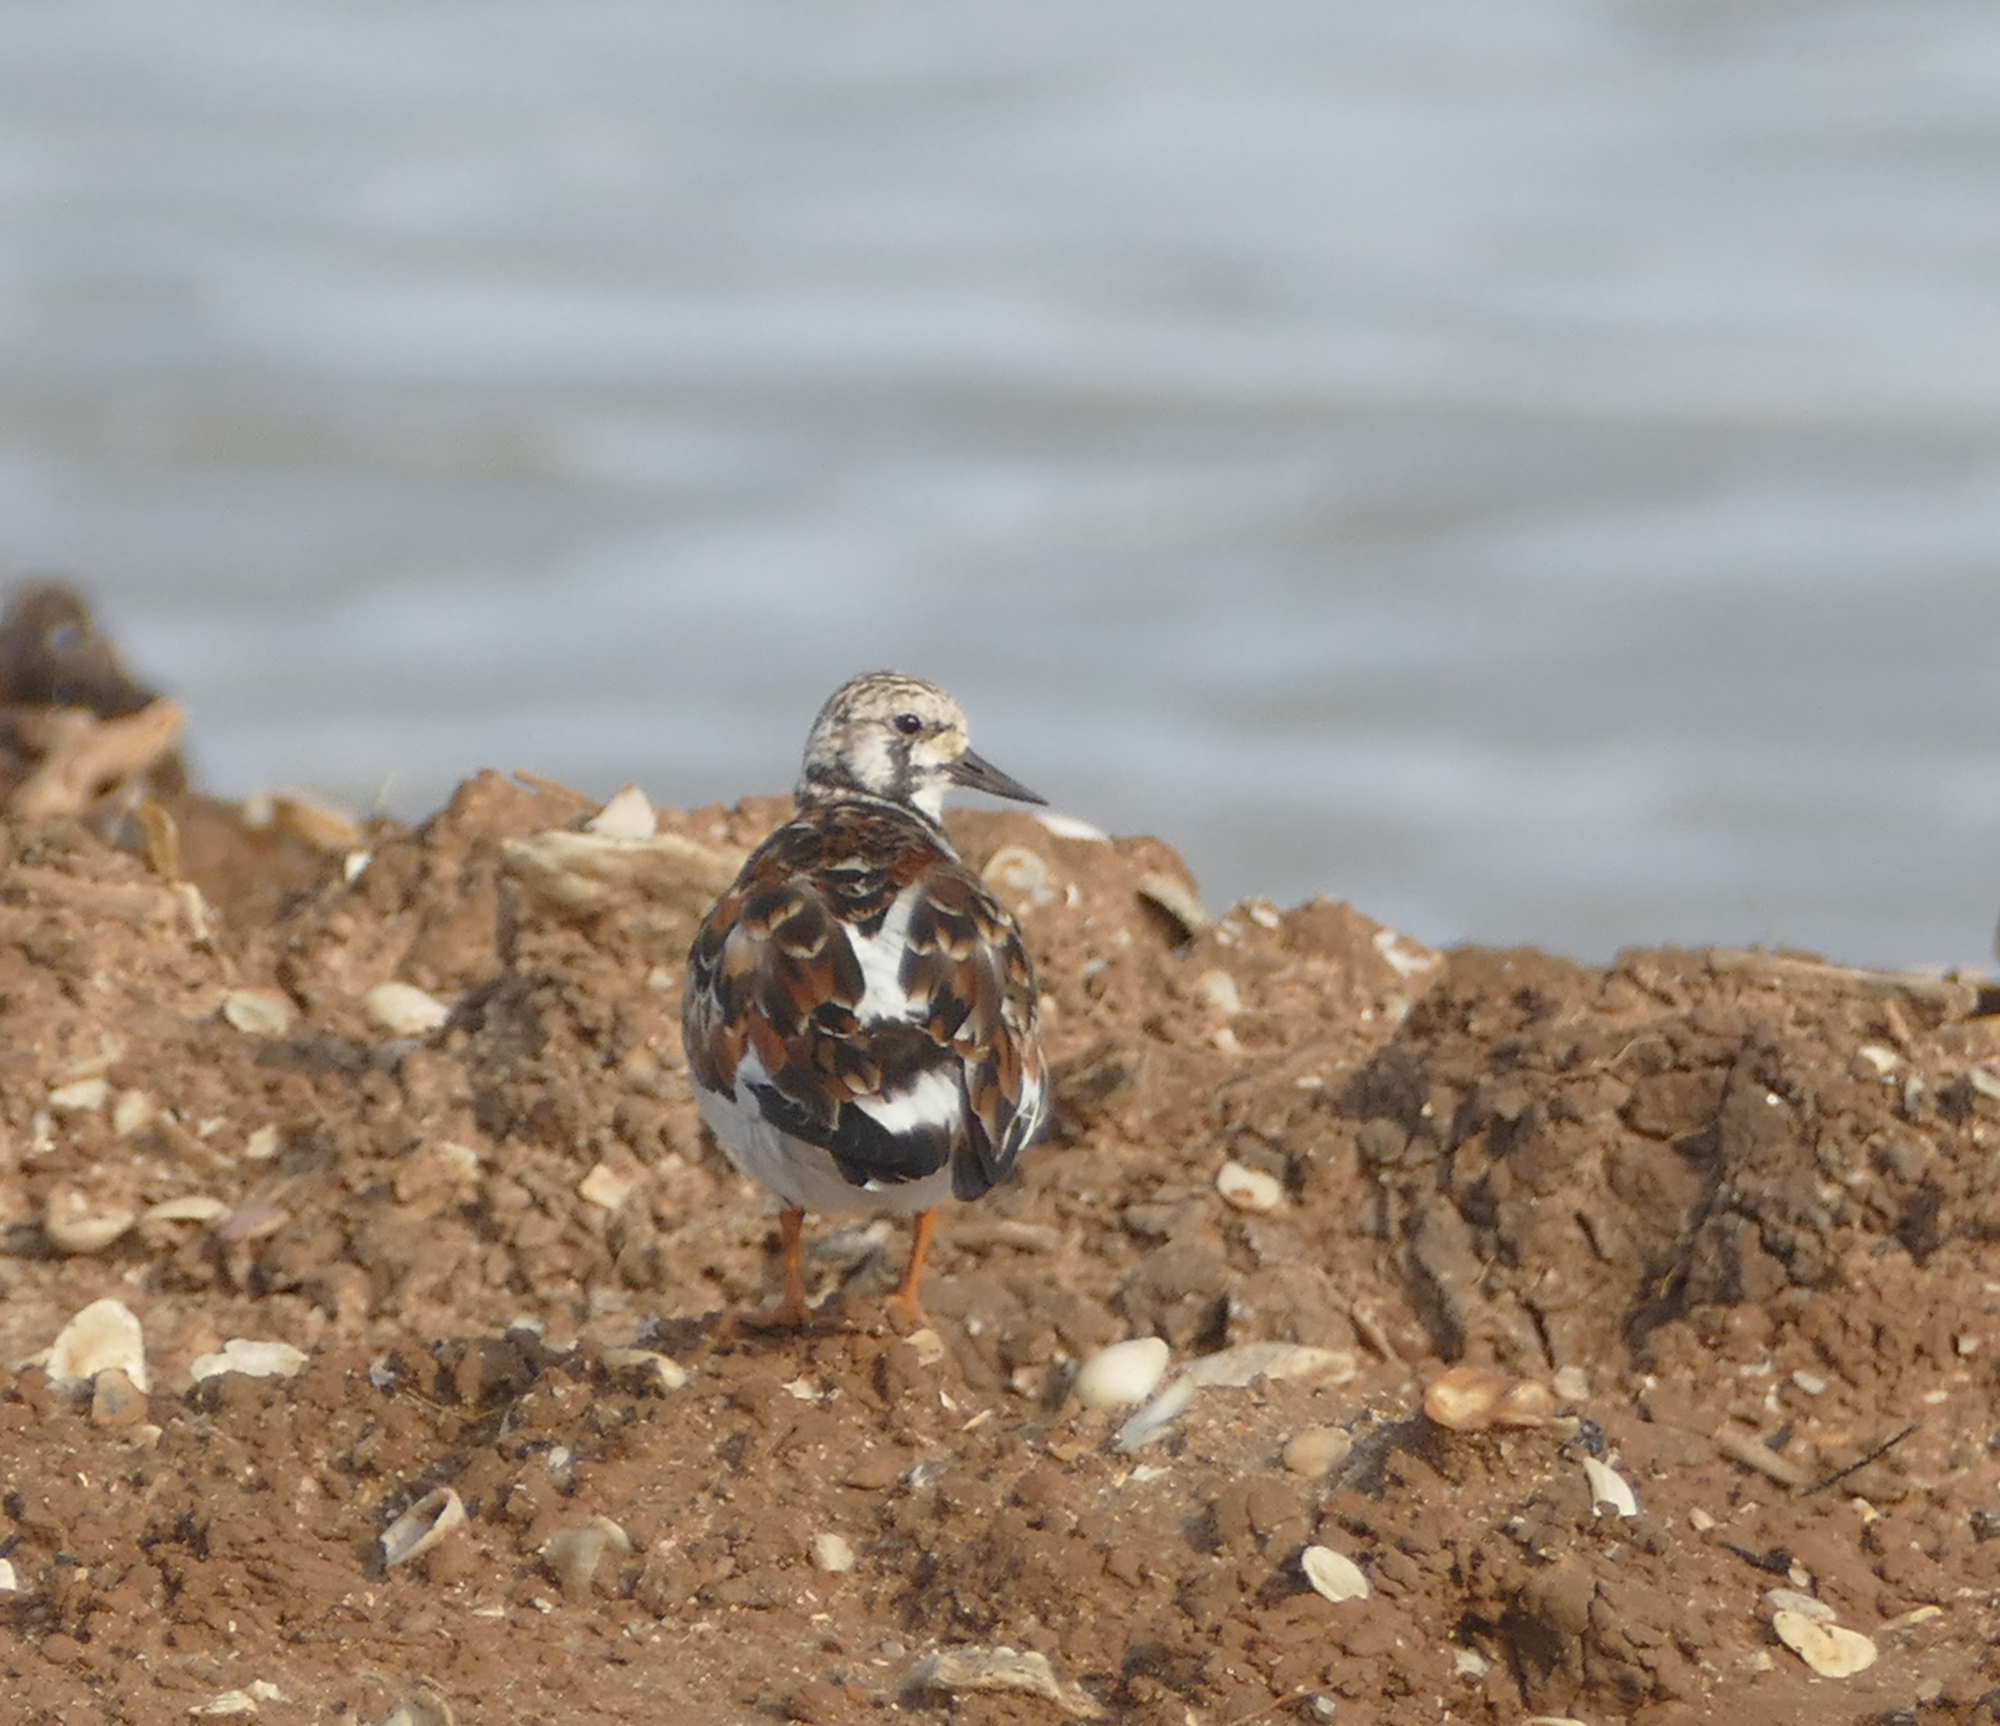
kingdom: Animalia
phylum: Chordata
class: Aves
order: Charadriiformes
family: Scolopacidae
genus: Arenaria
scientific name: Arenaria interpres
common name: Ruddy turnstone
